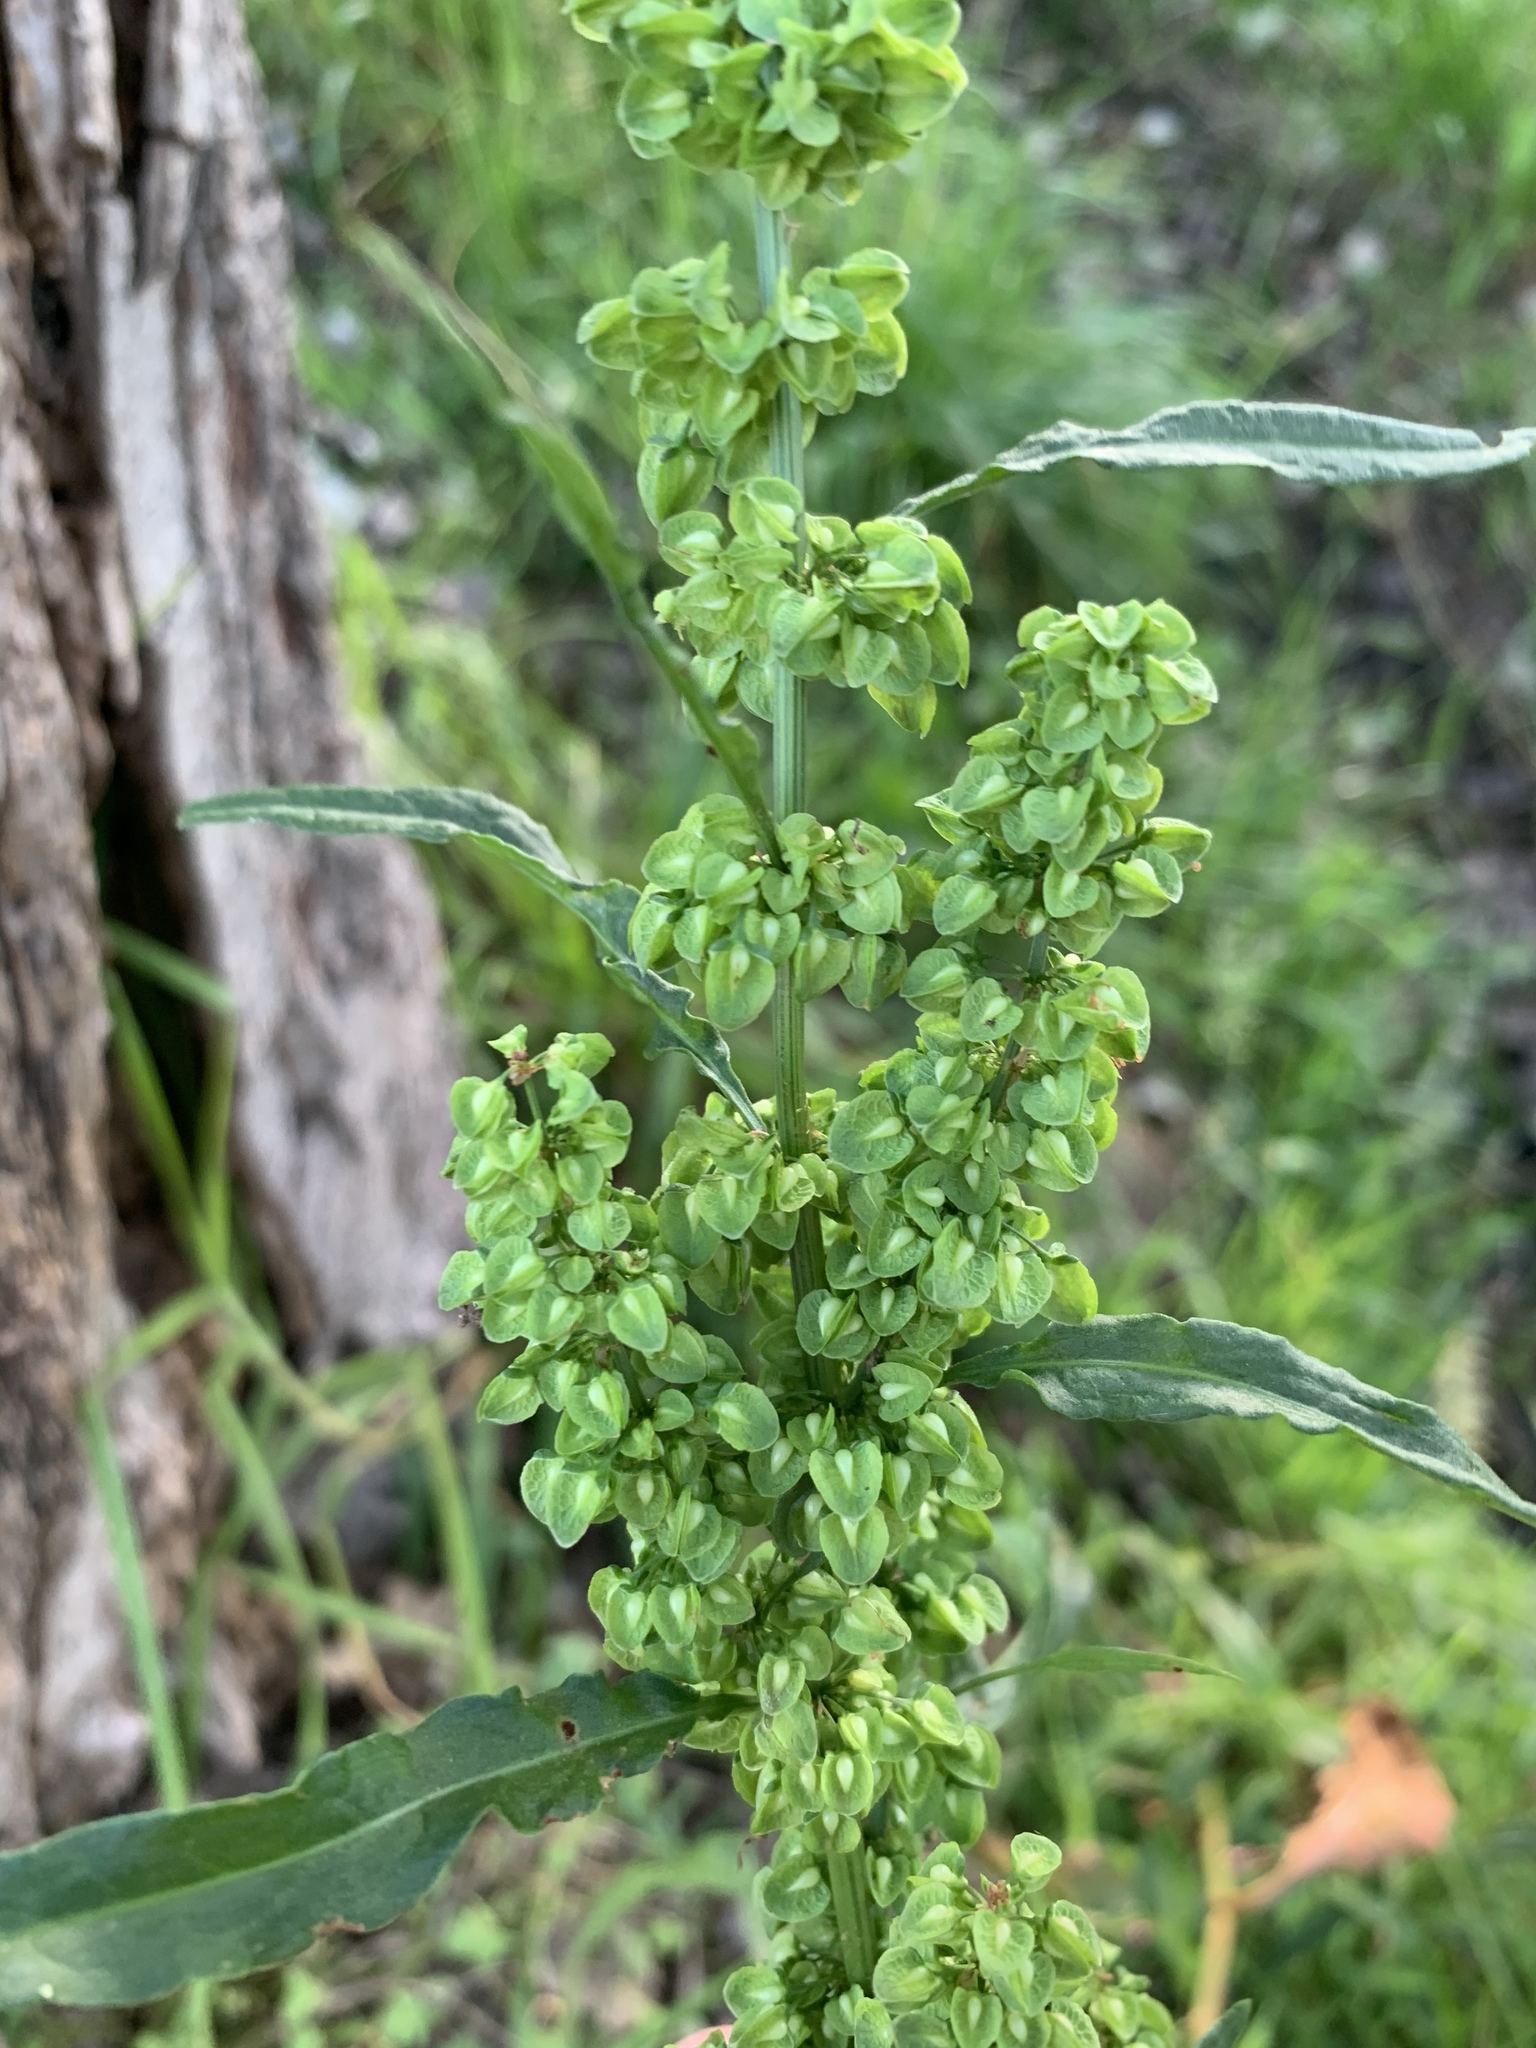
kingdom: Plantae
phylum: Tracheophyta
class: Magnoliopsida
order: Caryophyllales
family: Polygonaceae
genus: Rumex
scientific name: Rumex crispus
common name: Curled dock
